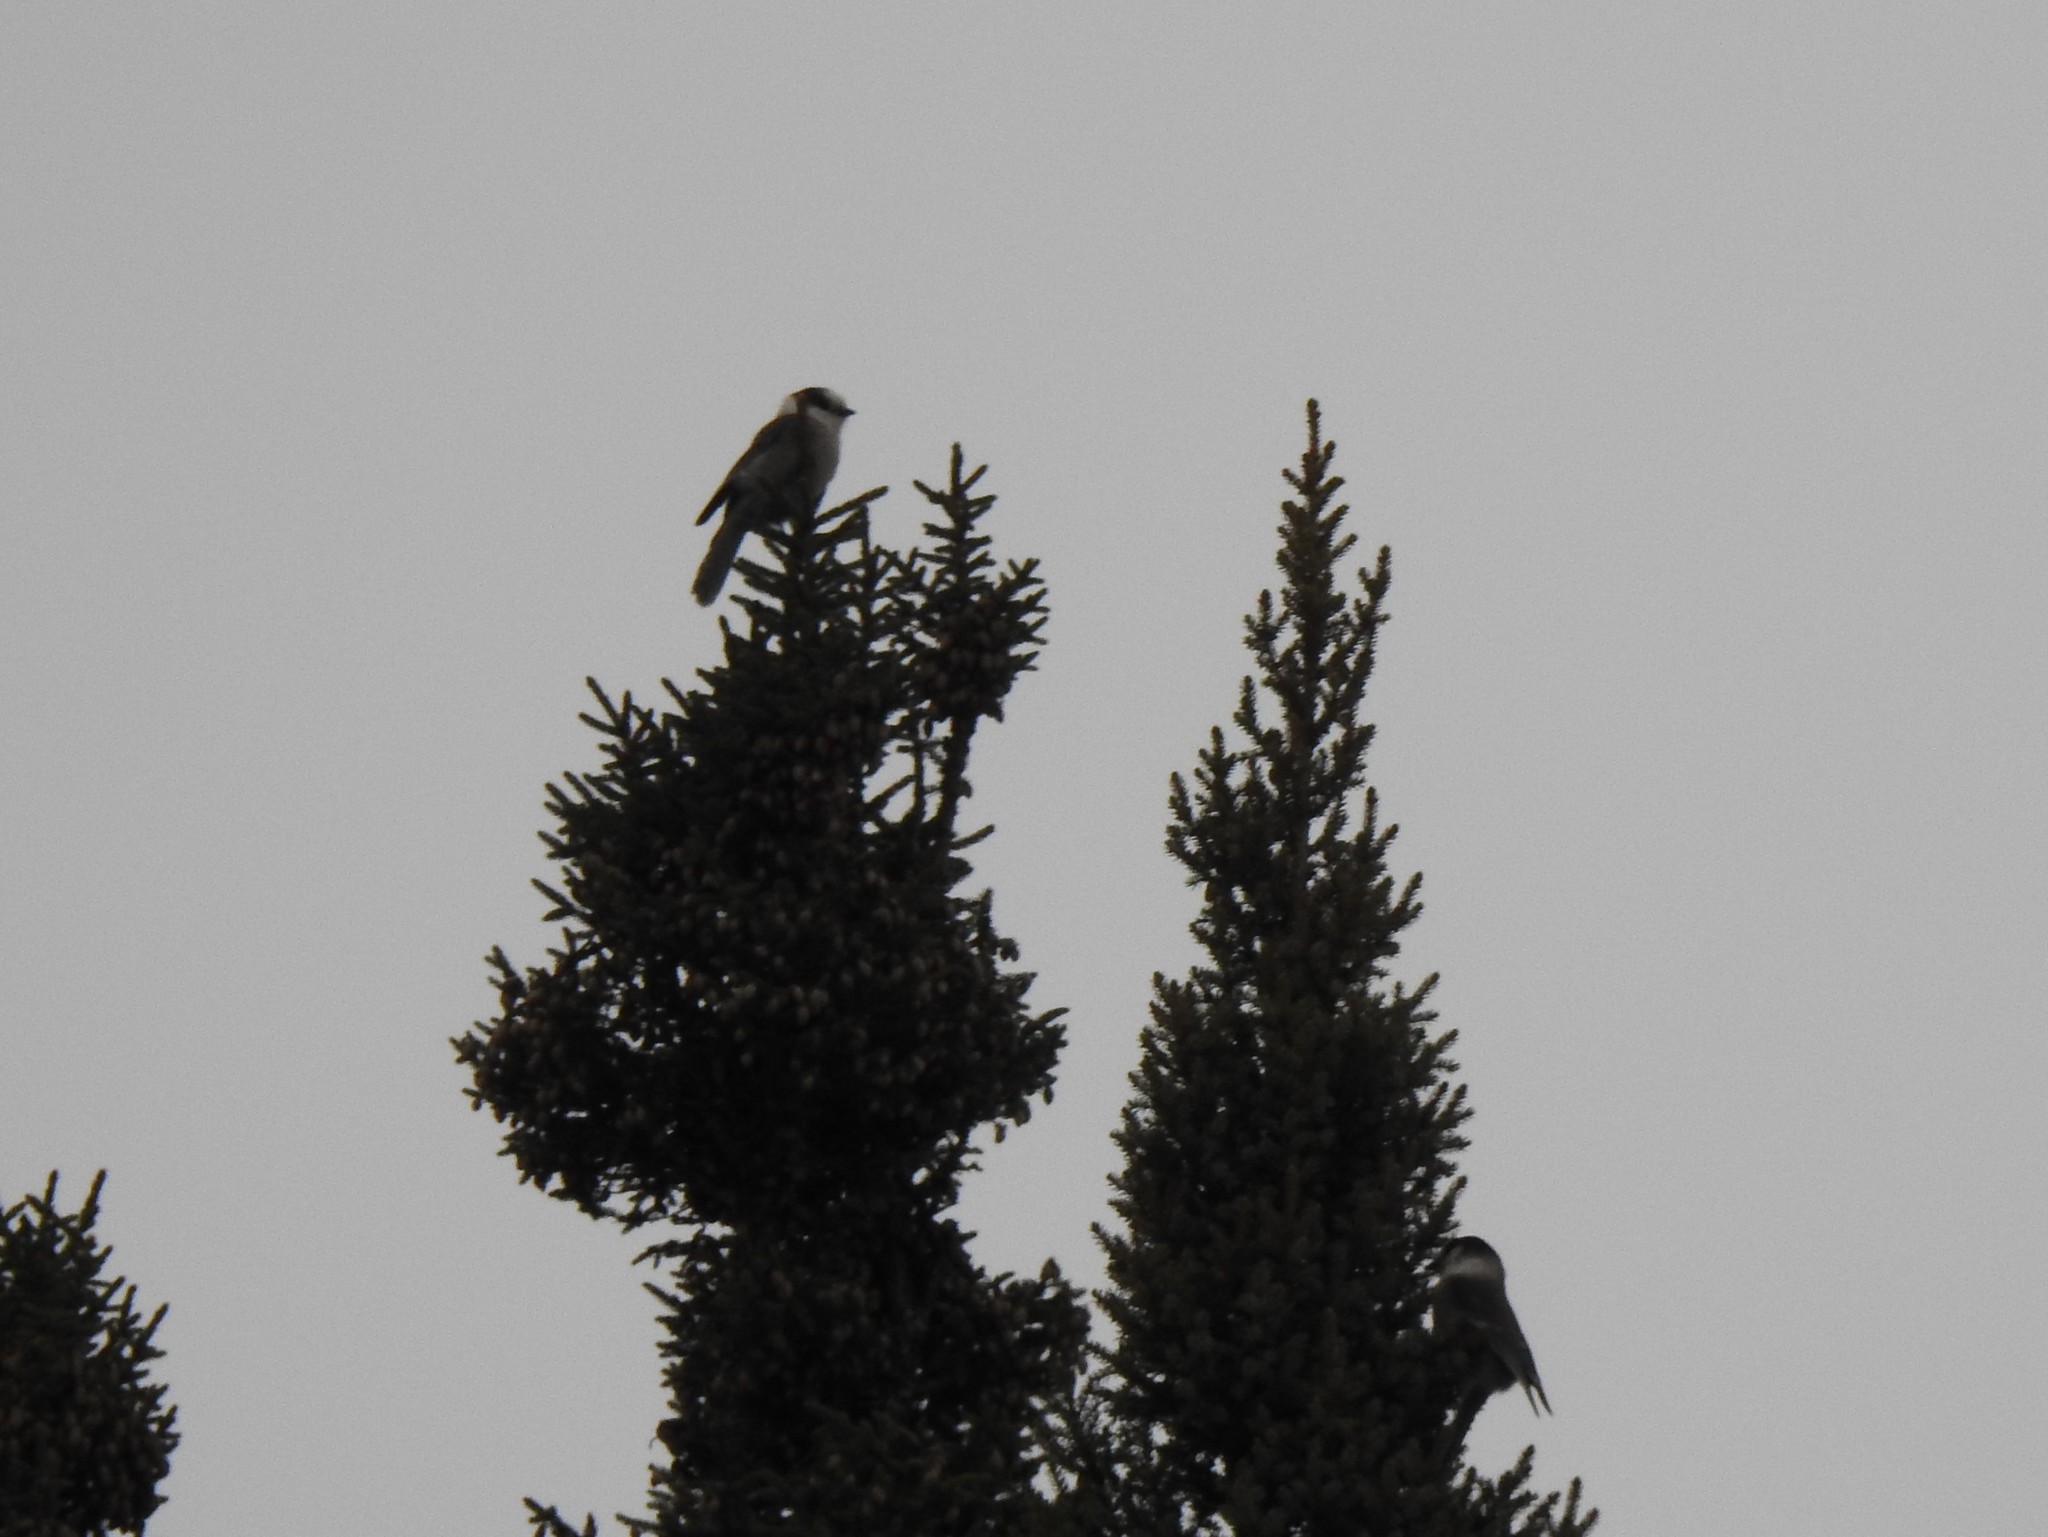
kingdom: Animalia
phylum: Chordata
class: Aves
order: Passeriformes
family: Corvidae
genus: Perisoreus
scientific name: Perisoreus canadensis
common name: Gray jay
